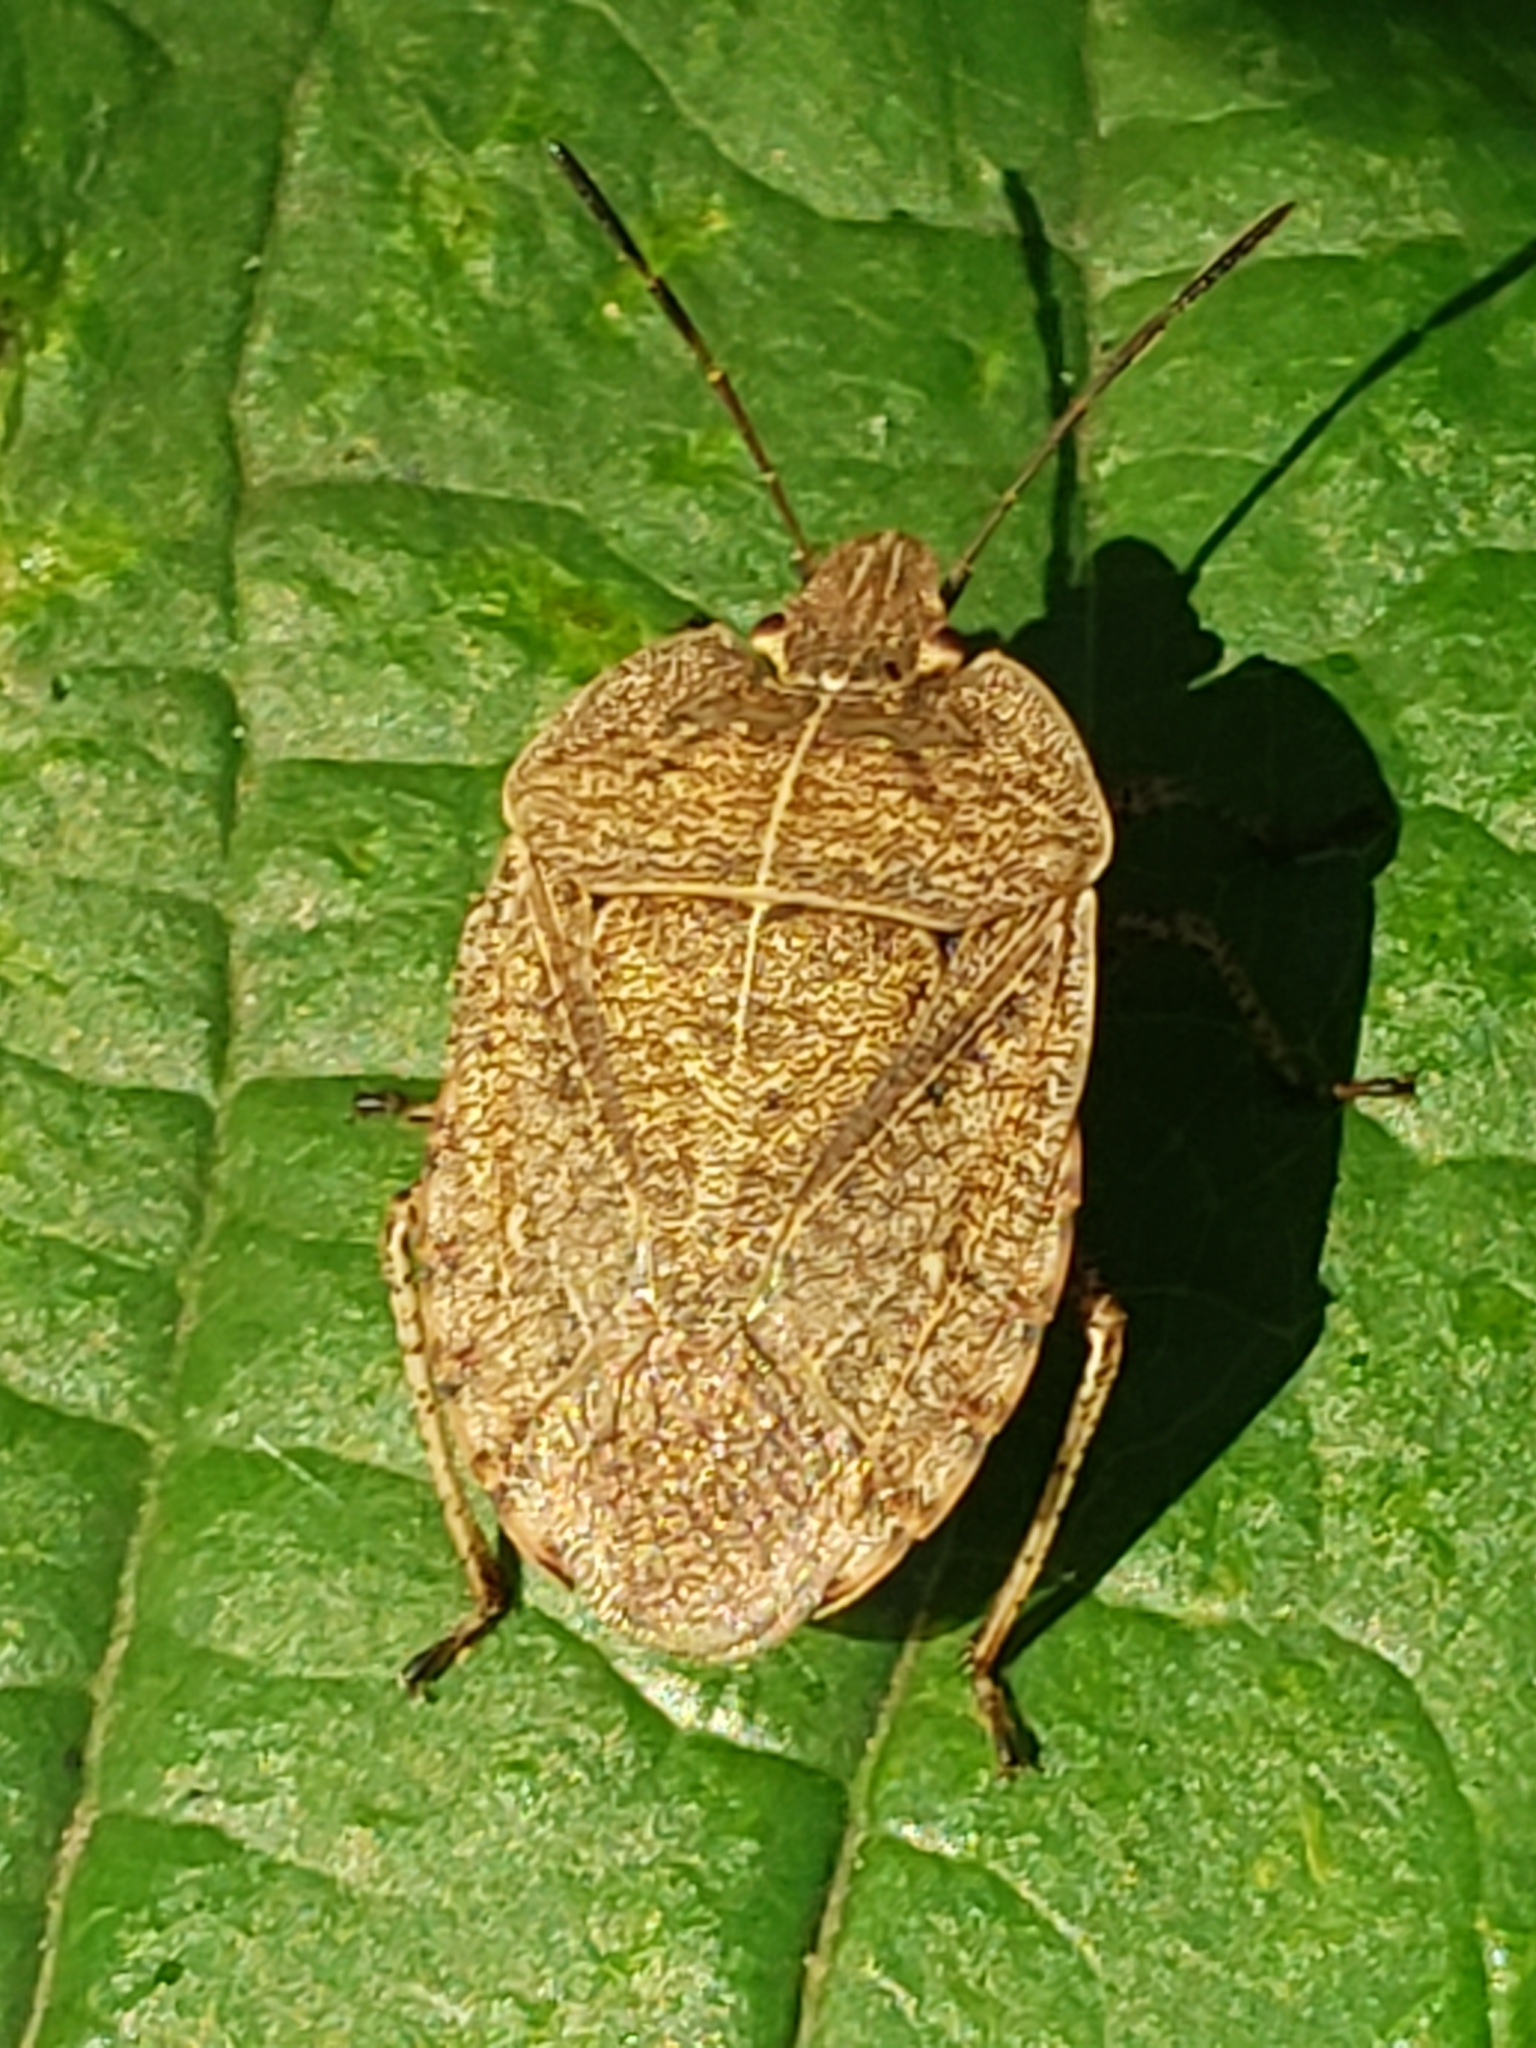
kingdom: Animalia
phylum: Arthropoda
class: Insecta
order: Hemiptera
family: Pentatomidae
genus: Menecles
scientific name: Menecles insertus
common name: Elf shoe stink bug
